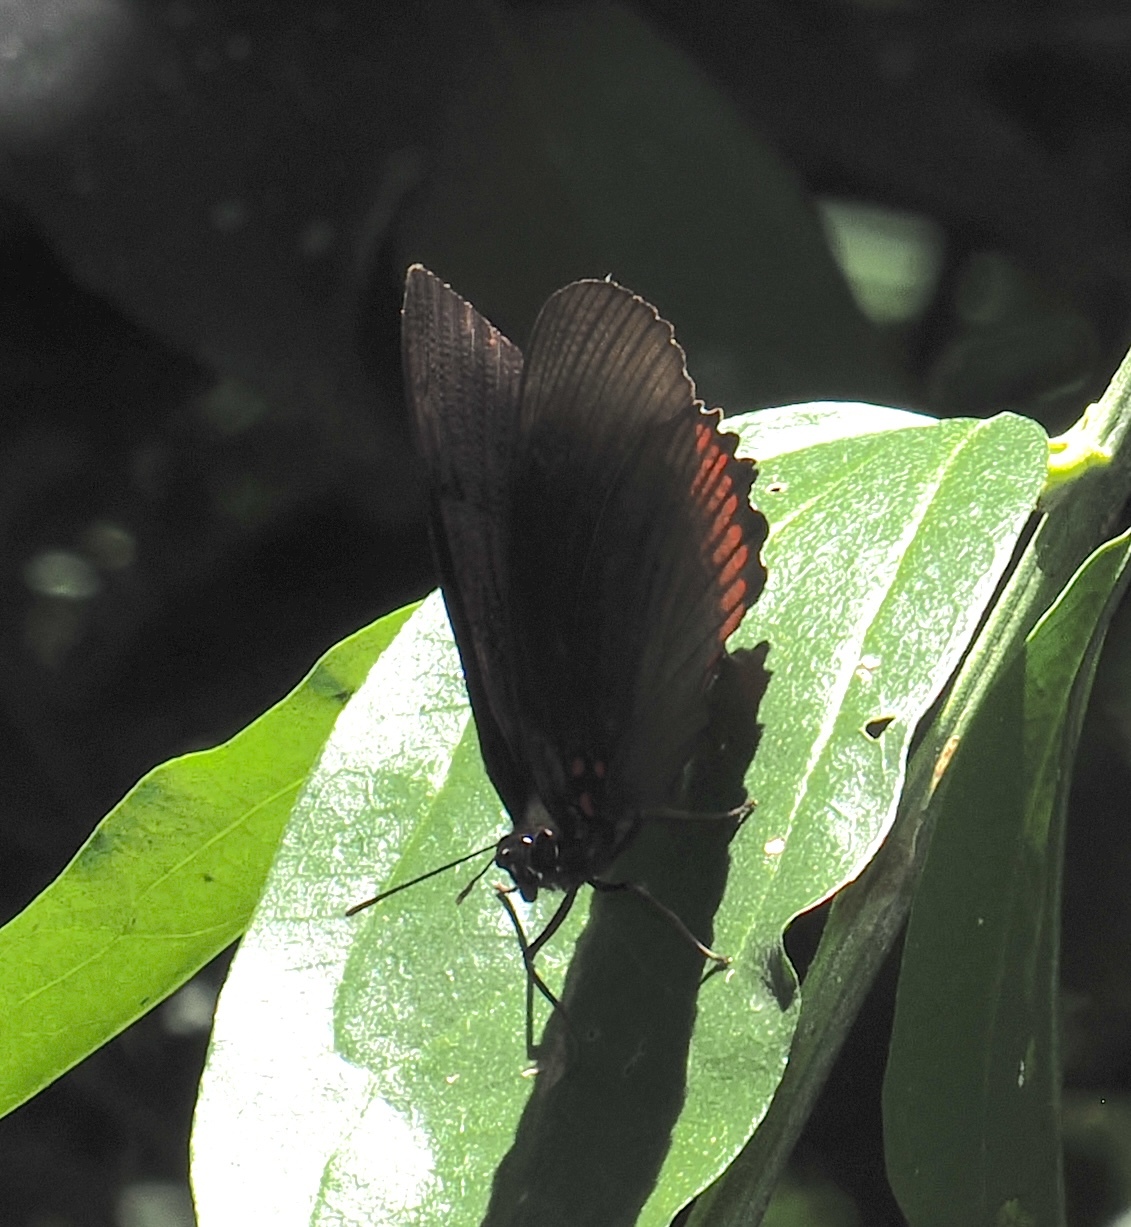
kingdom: Animalia
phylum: Arthropoda
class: Insecta
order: Lepidoptera
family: Sesiidae
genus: Sesia
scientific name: Sesia Biblis hyperia
